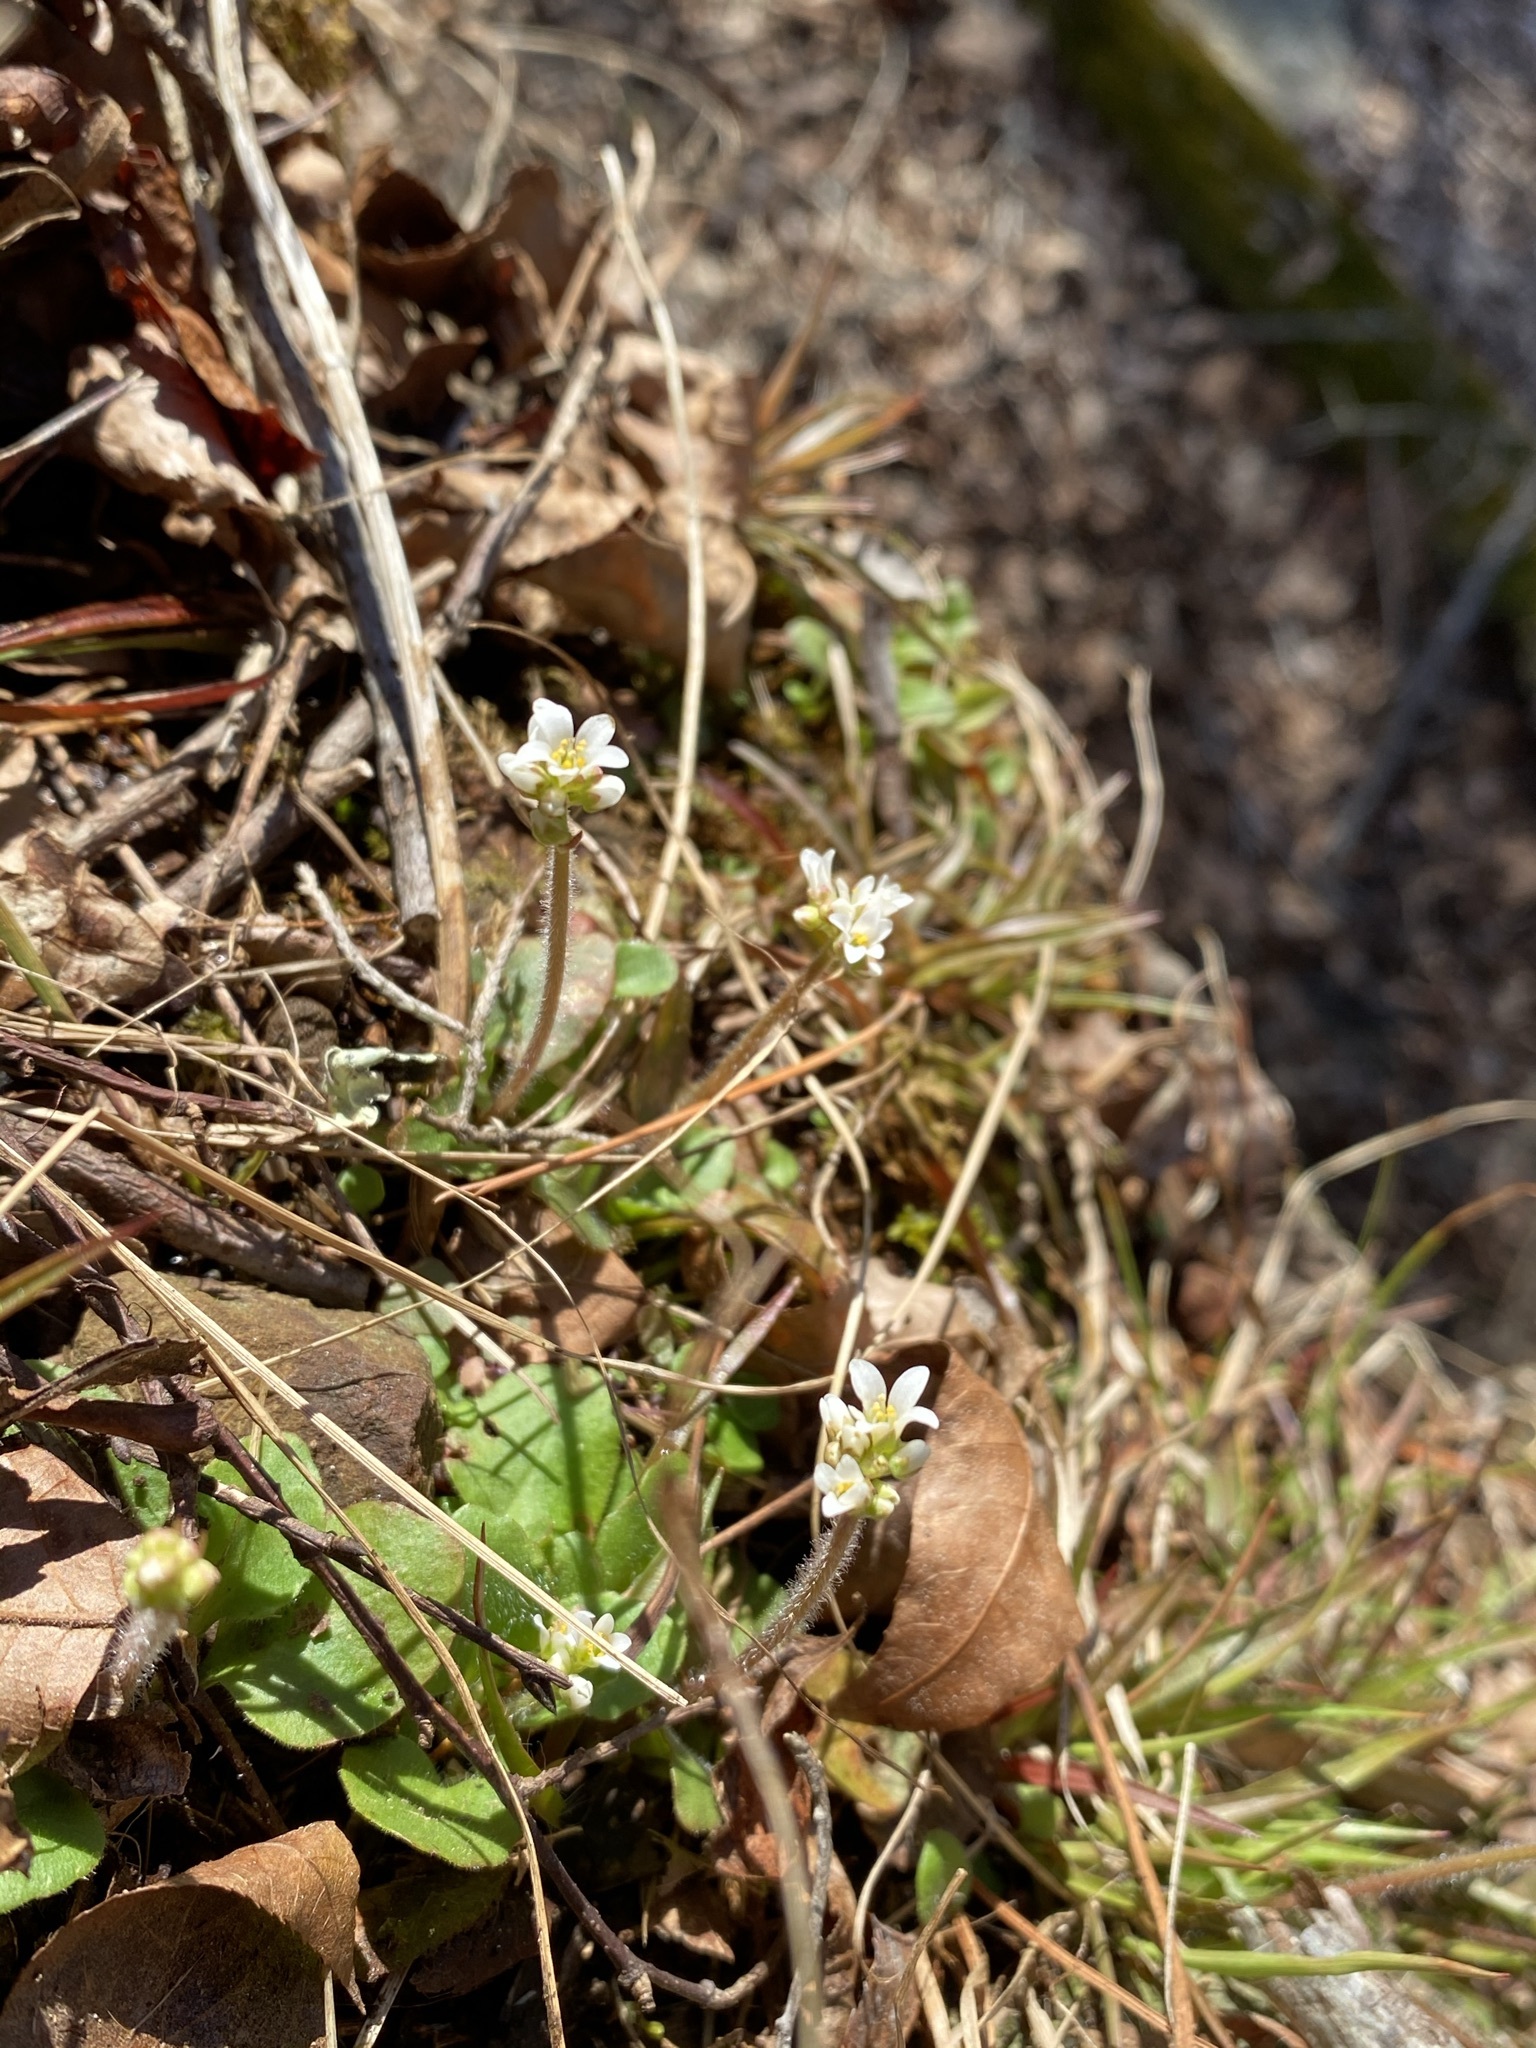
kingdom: Plantae
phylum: Tracheophyta
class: Magnoliopsida
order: Saxifragales
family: Saxifragaceae
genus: Micranthes
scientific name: Micranthes palmeri
